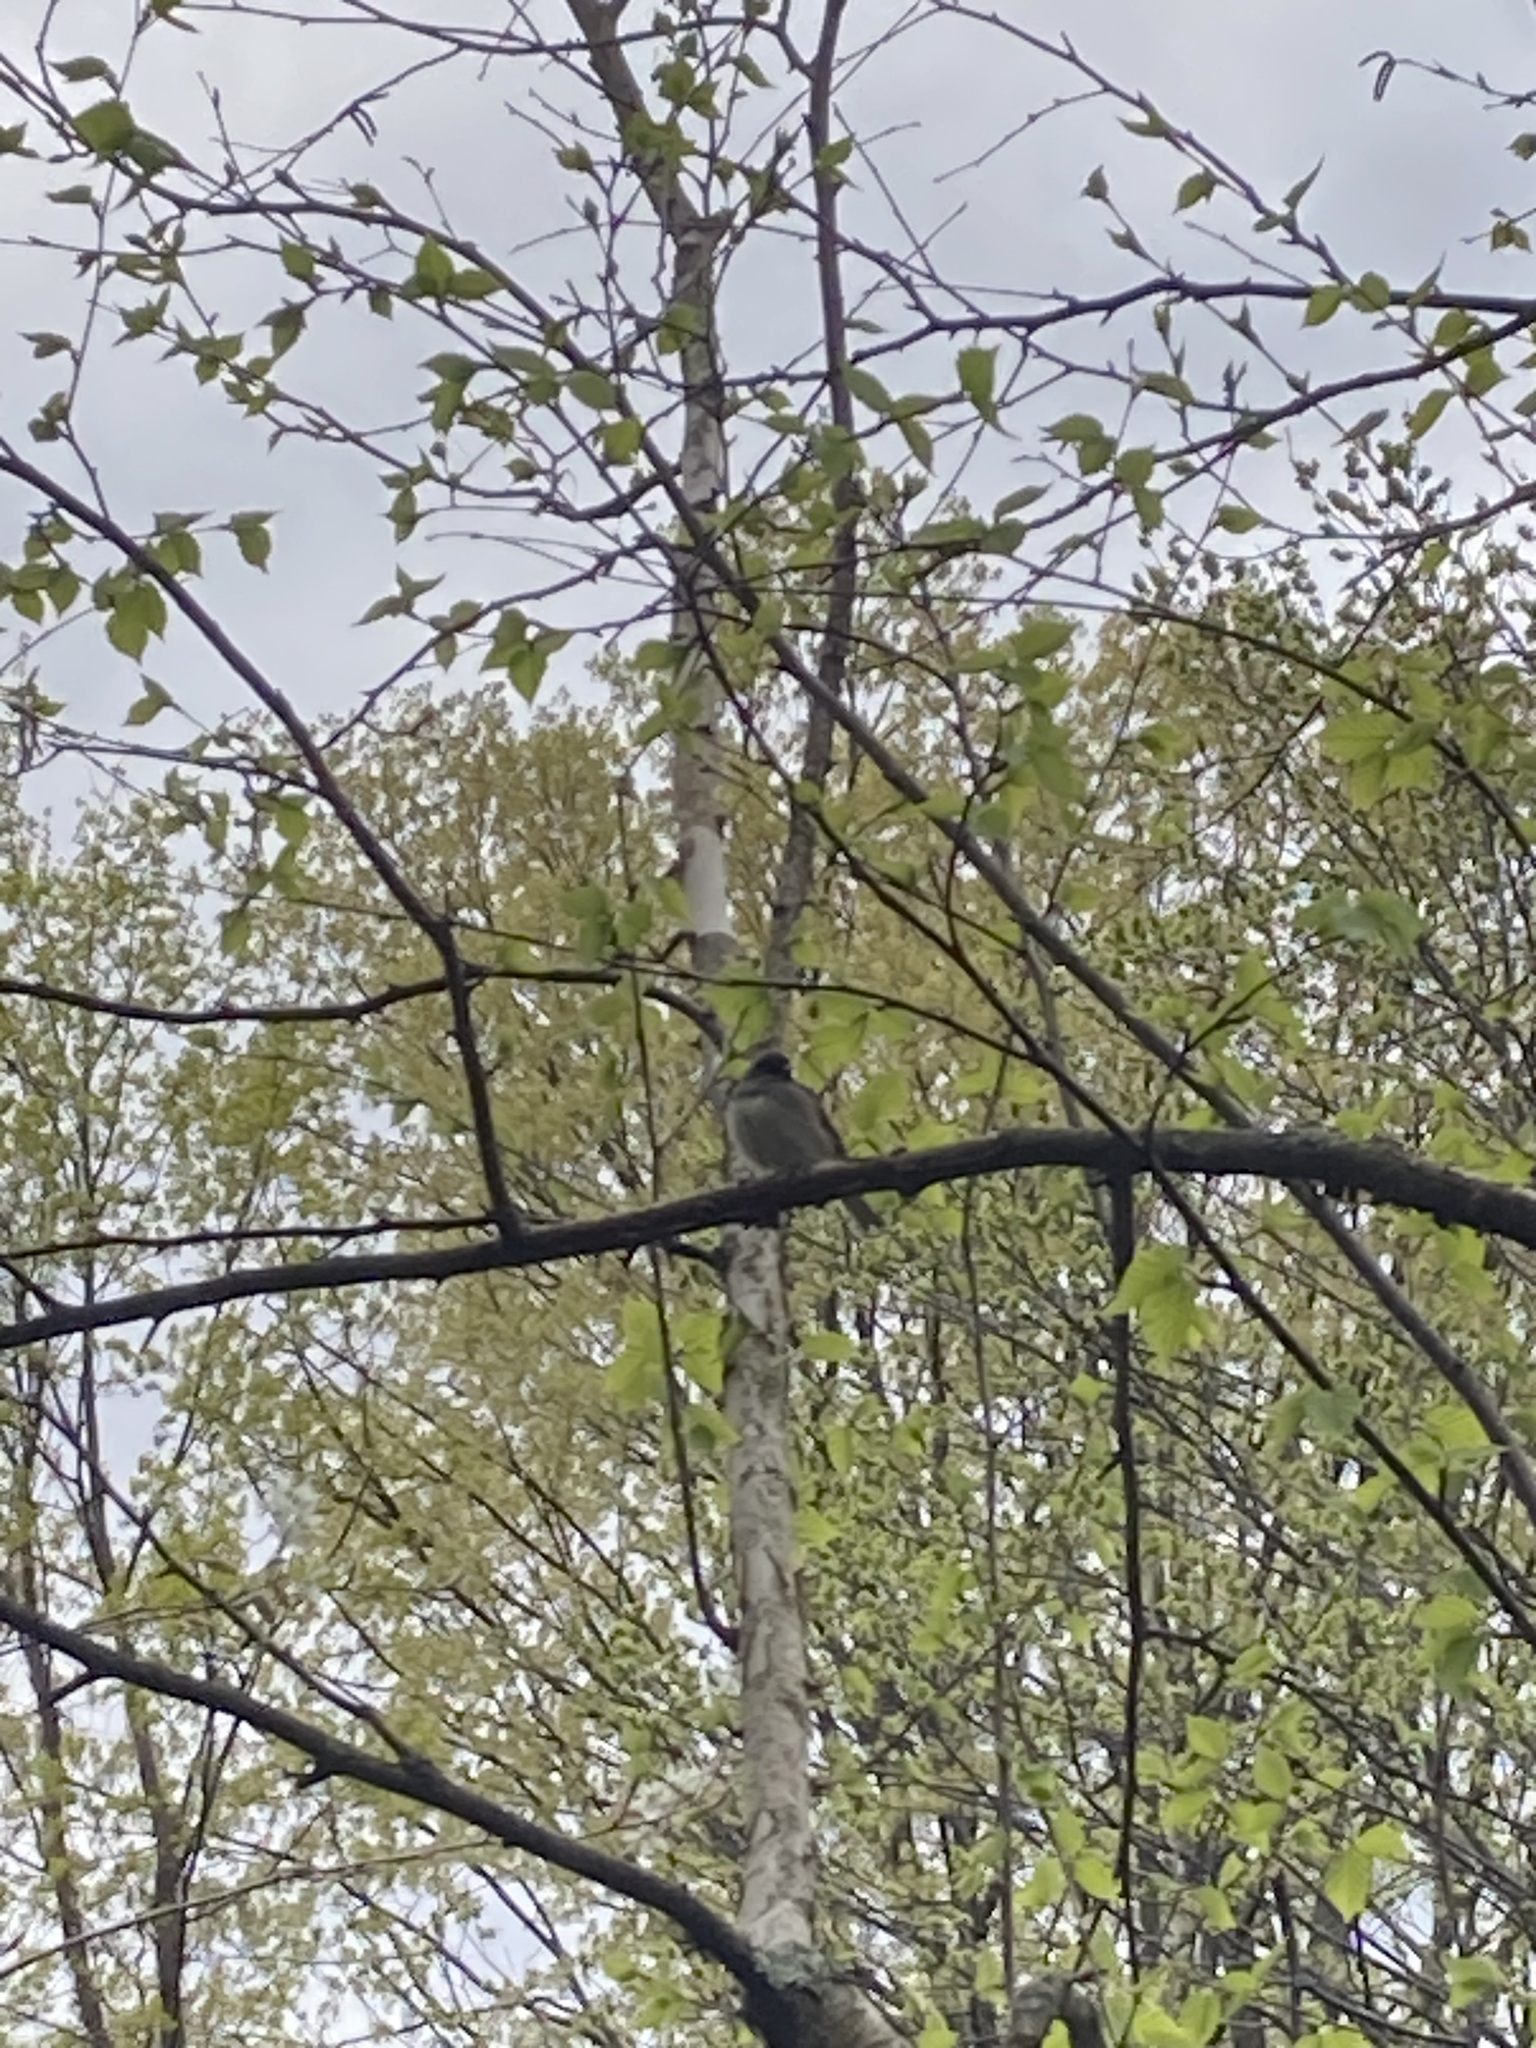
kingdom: Animalia
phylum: Chordata
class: Aves
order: Passeriformes
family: Passerellidae
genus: Junco
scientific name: Junco hyemalis
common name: Dark-eyed junco
